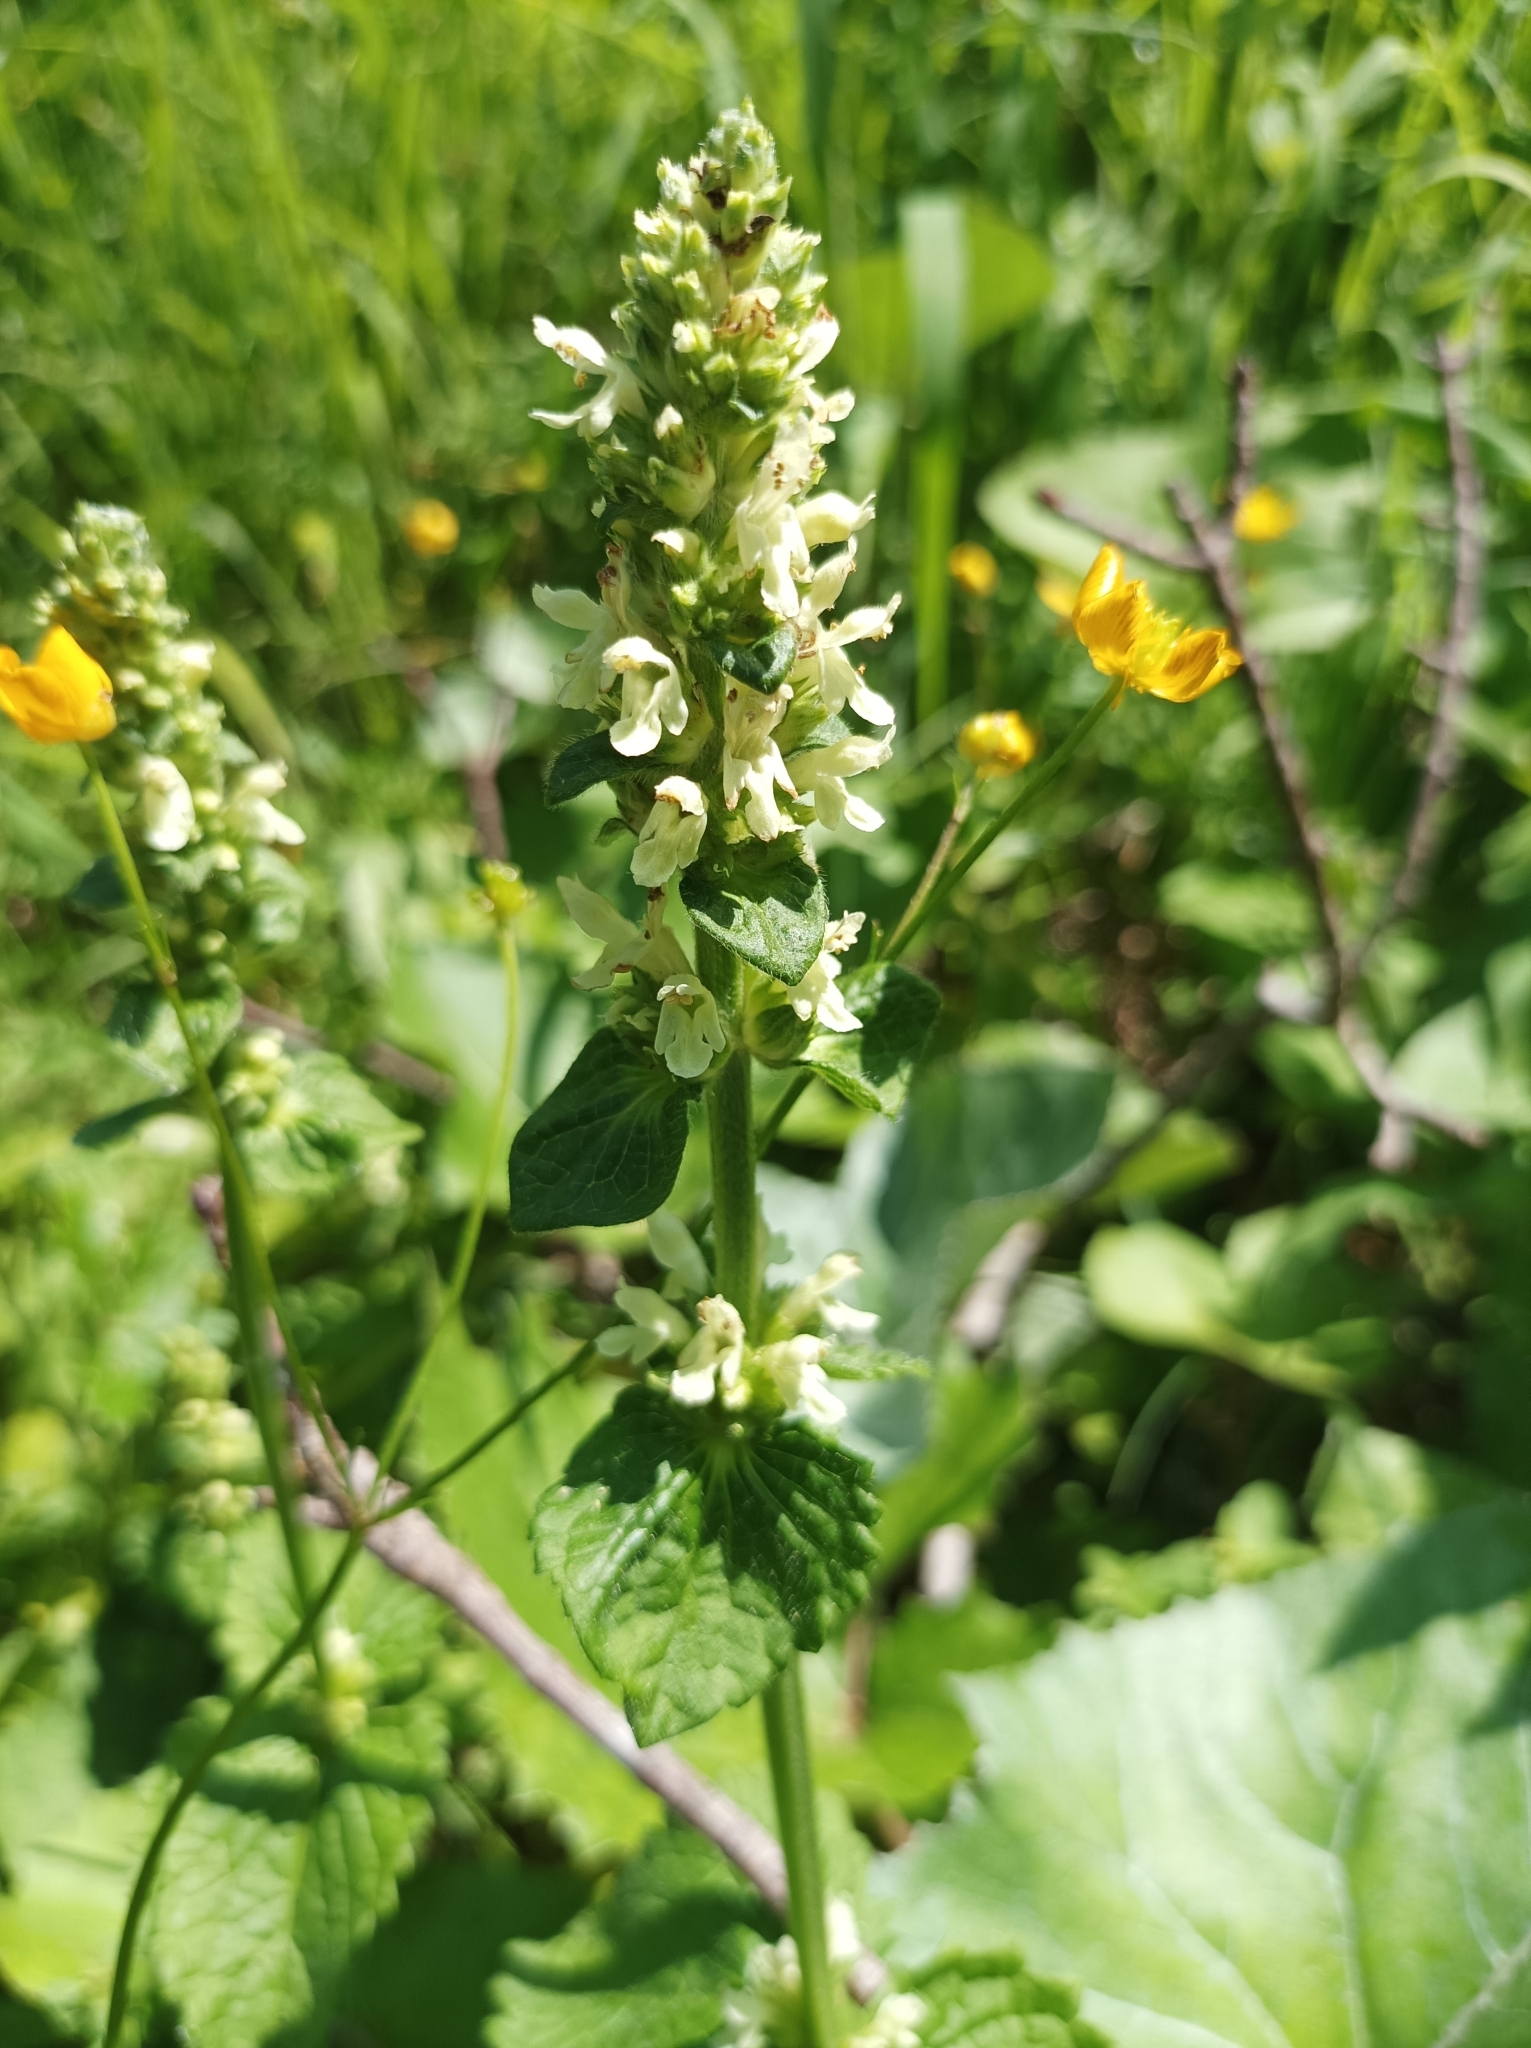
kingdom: Plantae
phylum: Tracheophyta
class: Magnoliopsida
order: Lamiales
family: Lamiaceae
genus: Betonica
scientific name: Betonica alopecuros
